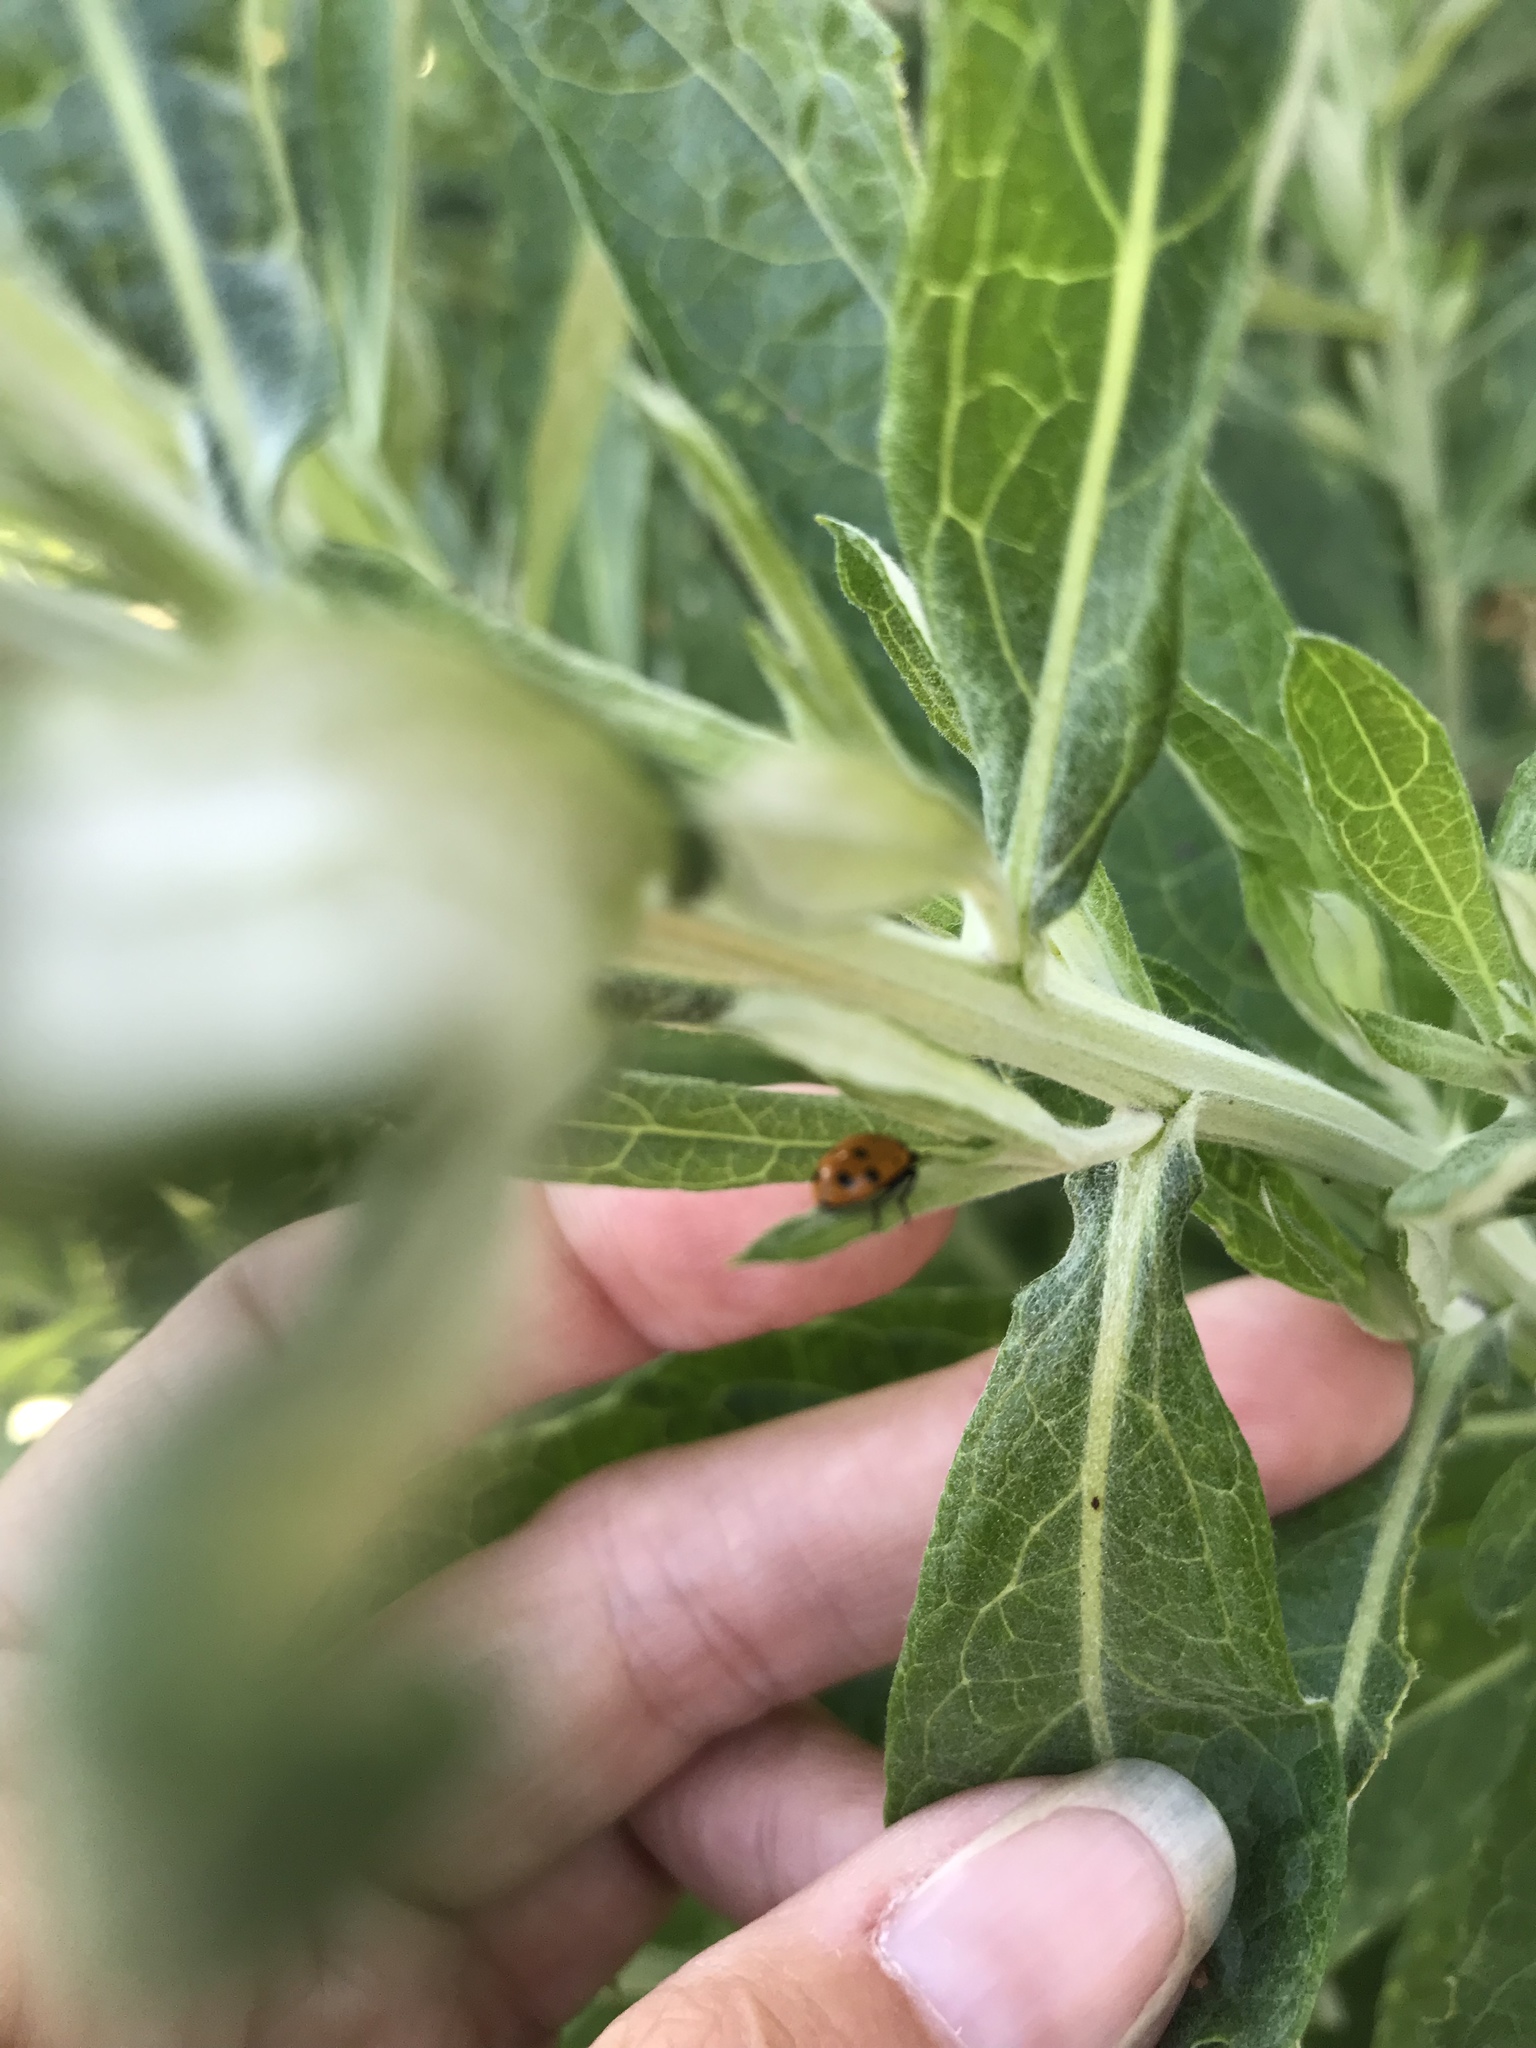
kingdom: Animalia
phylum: Arthropoda
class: Insecta
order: Coleoptera
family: Coccinellidae
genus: Hippodamia
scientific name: Hippodamia convergens
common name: Convergent lady beetle
